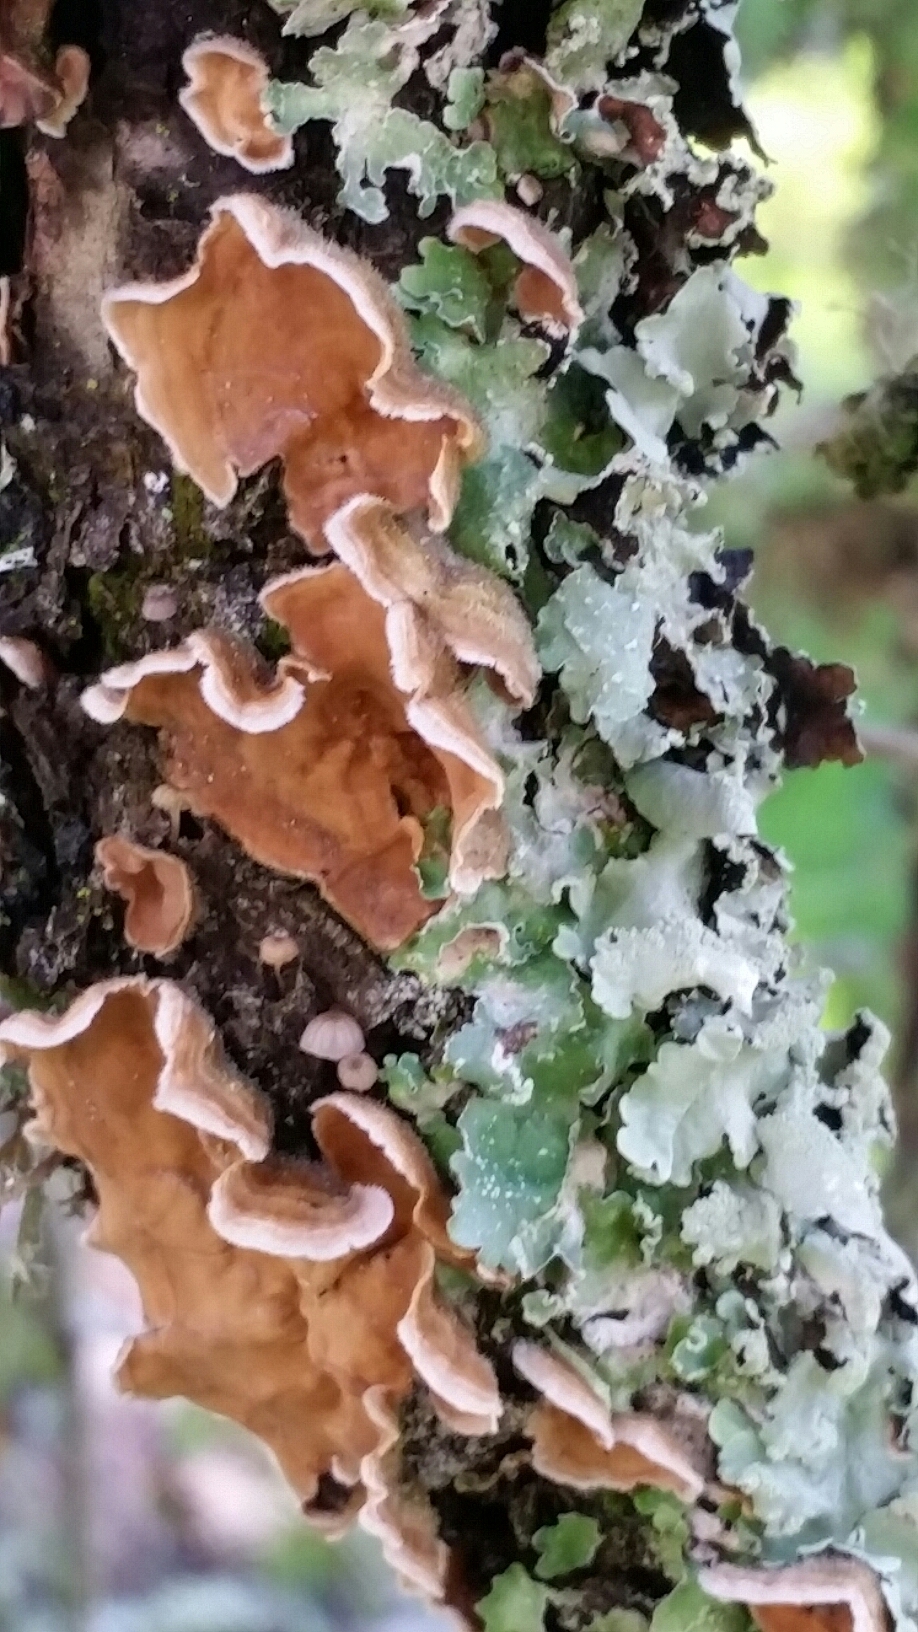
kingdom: Fungi
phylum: Basidiomycota
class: Agaricomycetes
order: Russulales
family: Stereaceae
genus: Stereum
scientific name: Stereum hirsutum
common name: Hairy curtain crust
